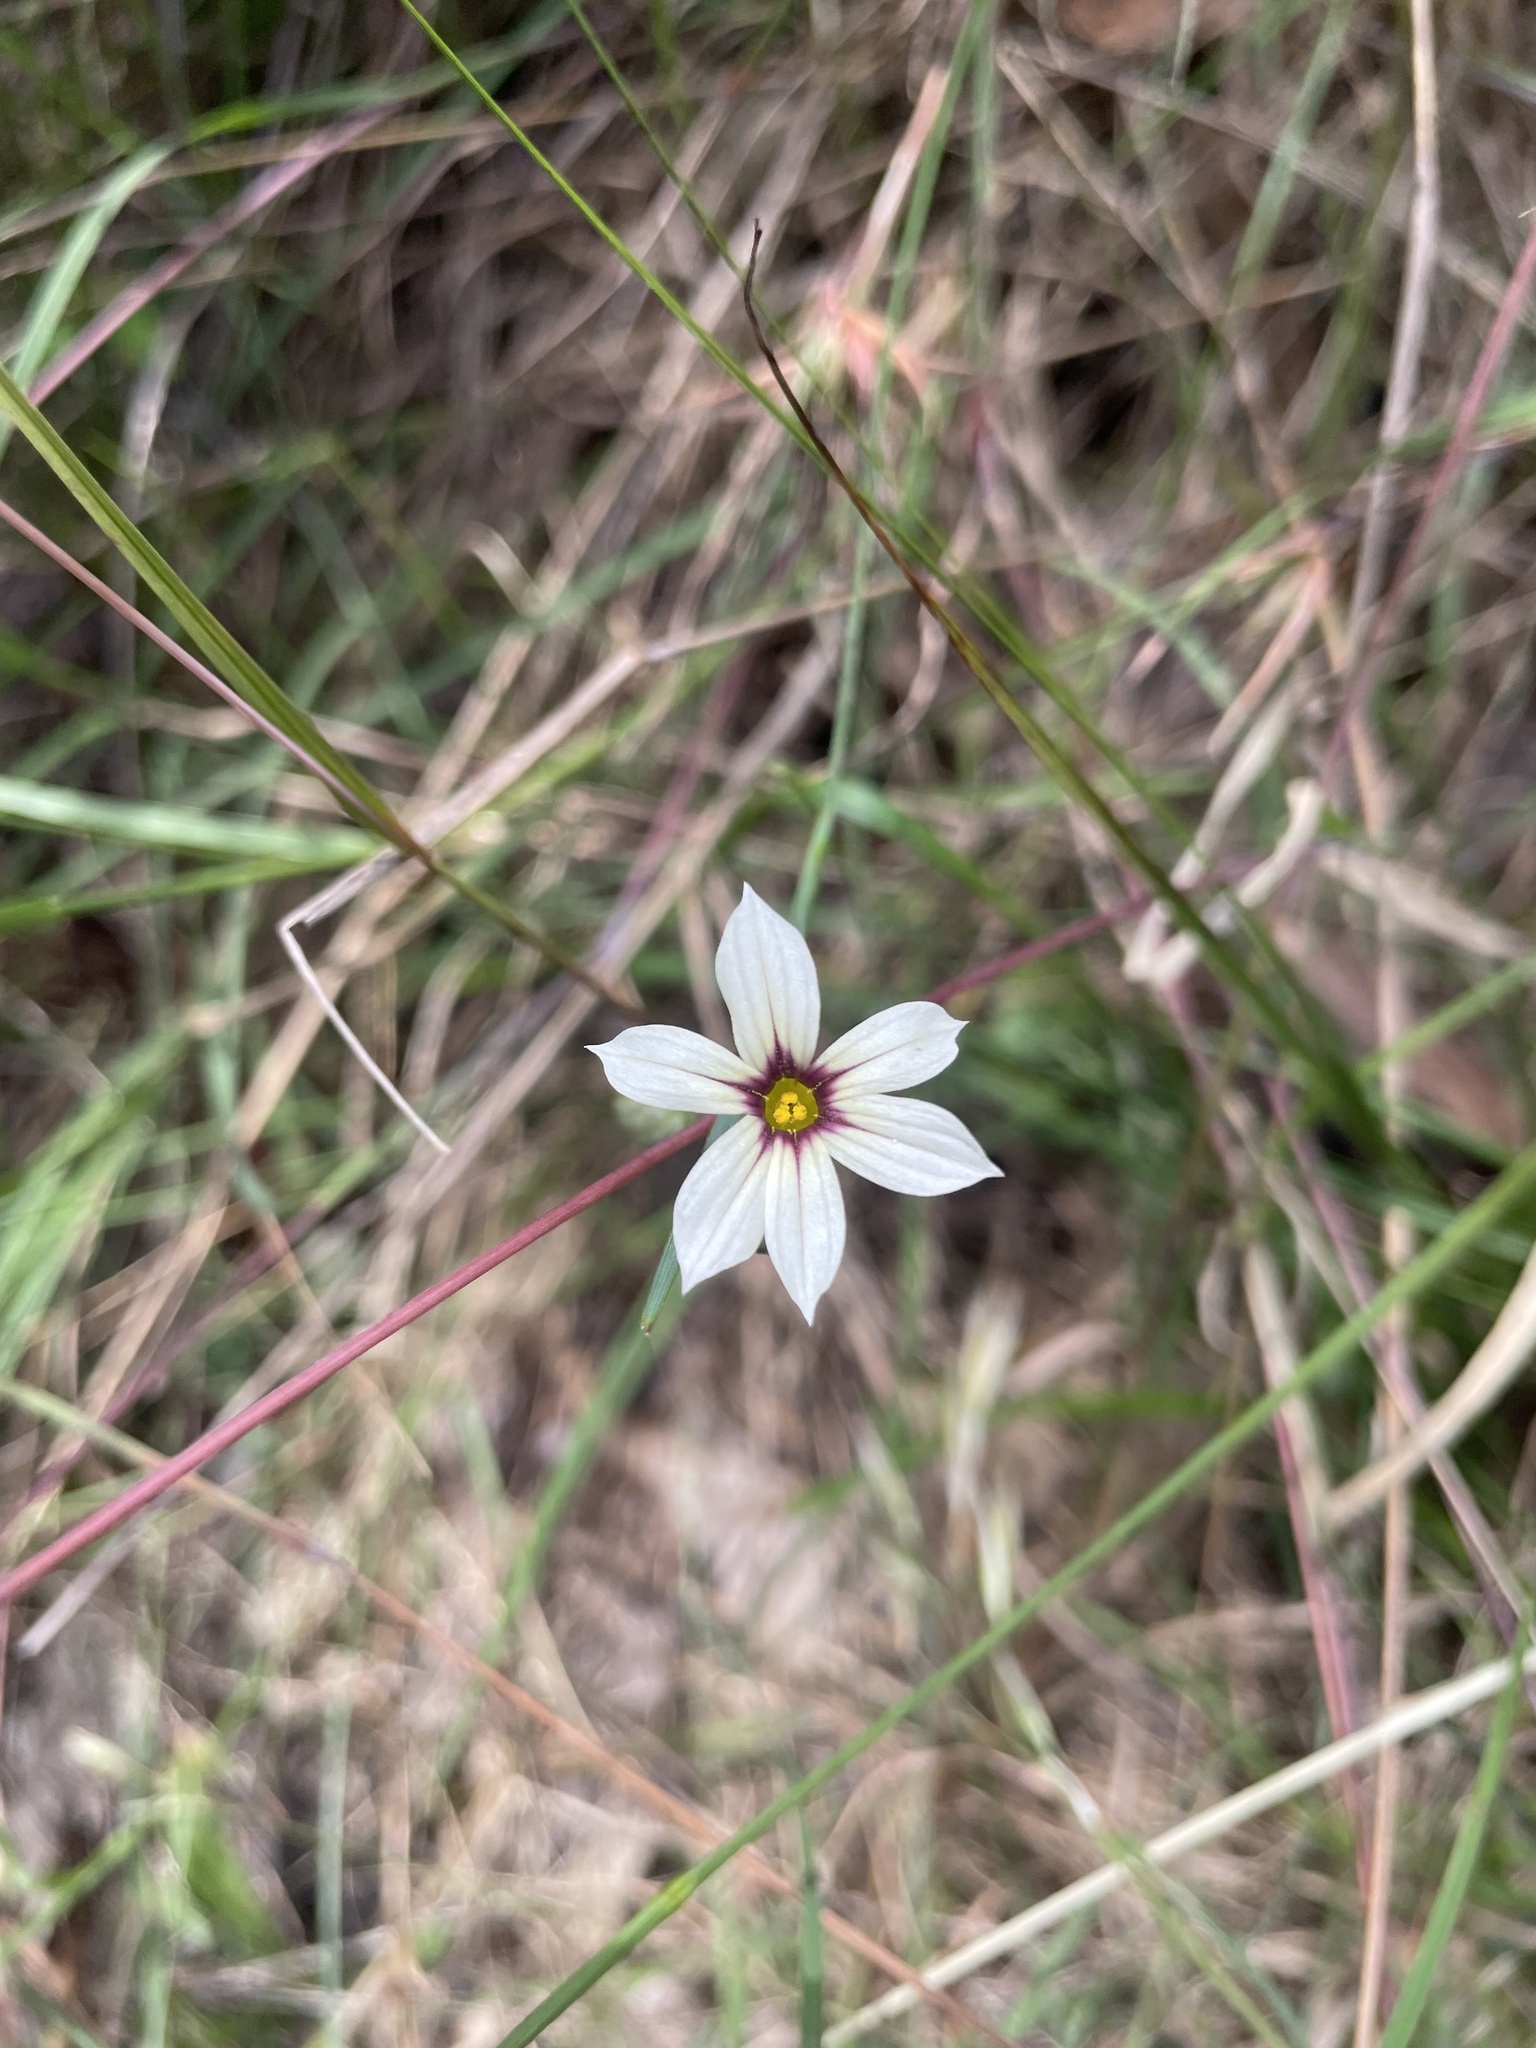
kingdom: Plantae
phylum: Tracheophyta
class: Liliopsida
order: Asparagales
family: Iridaceae
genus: Sisyrinchium
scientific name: Sisyrinchium micranthum
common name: Bermuda pigroot
